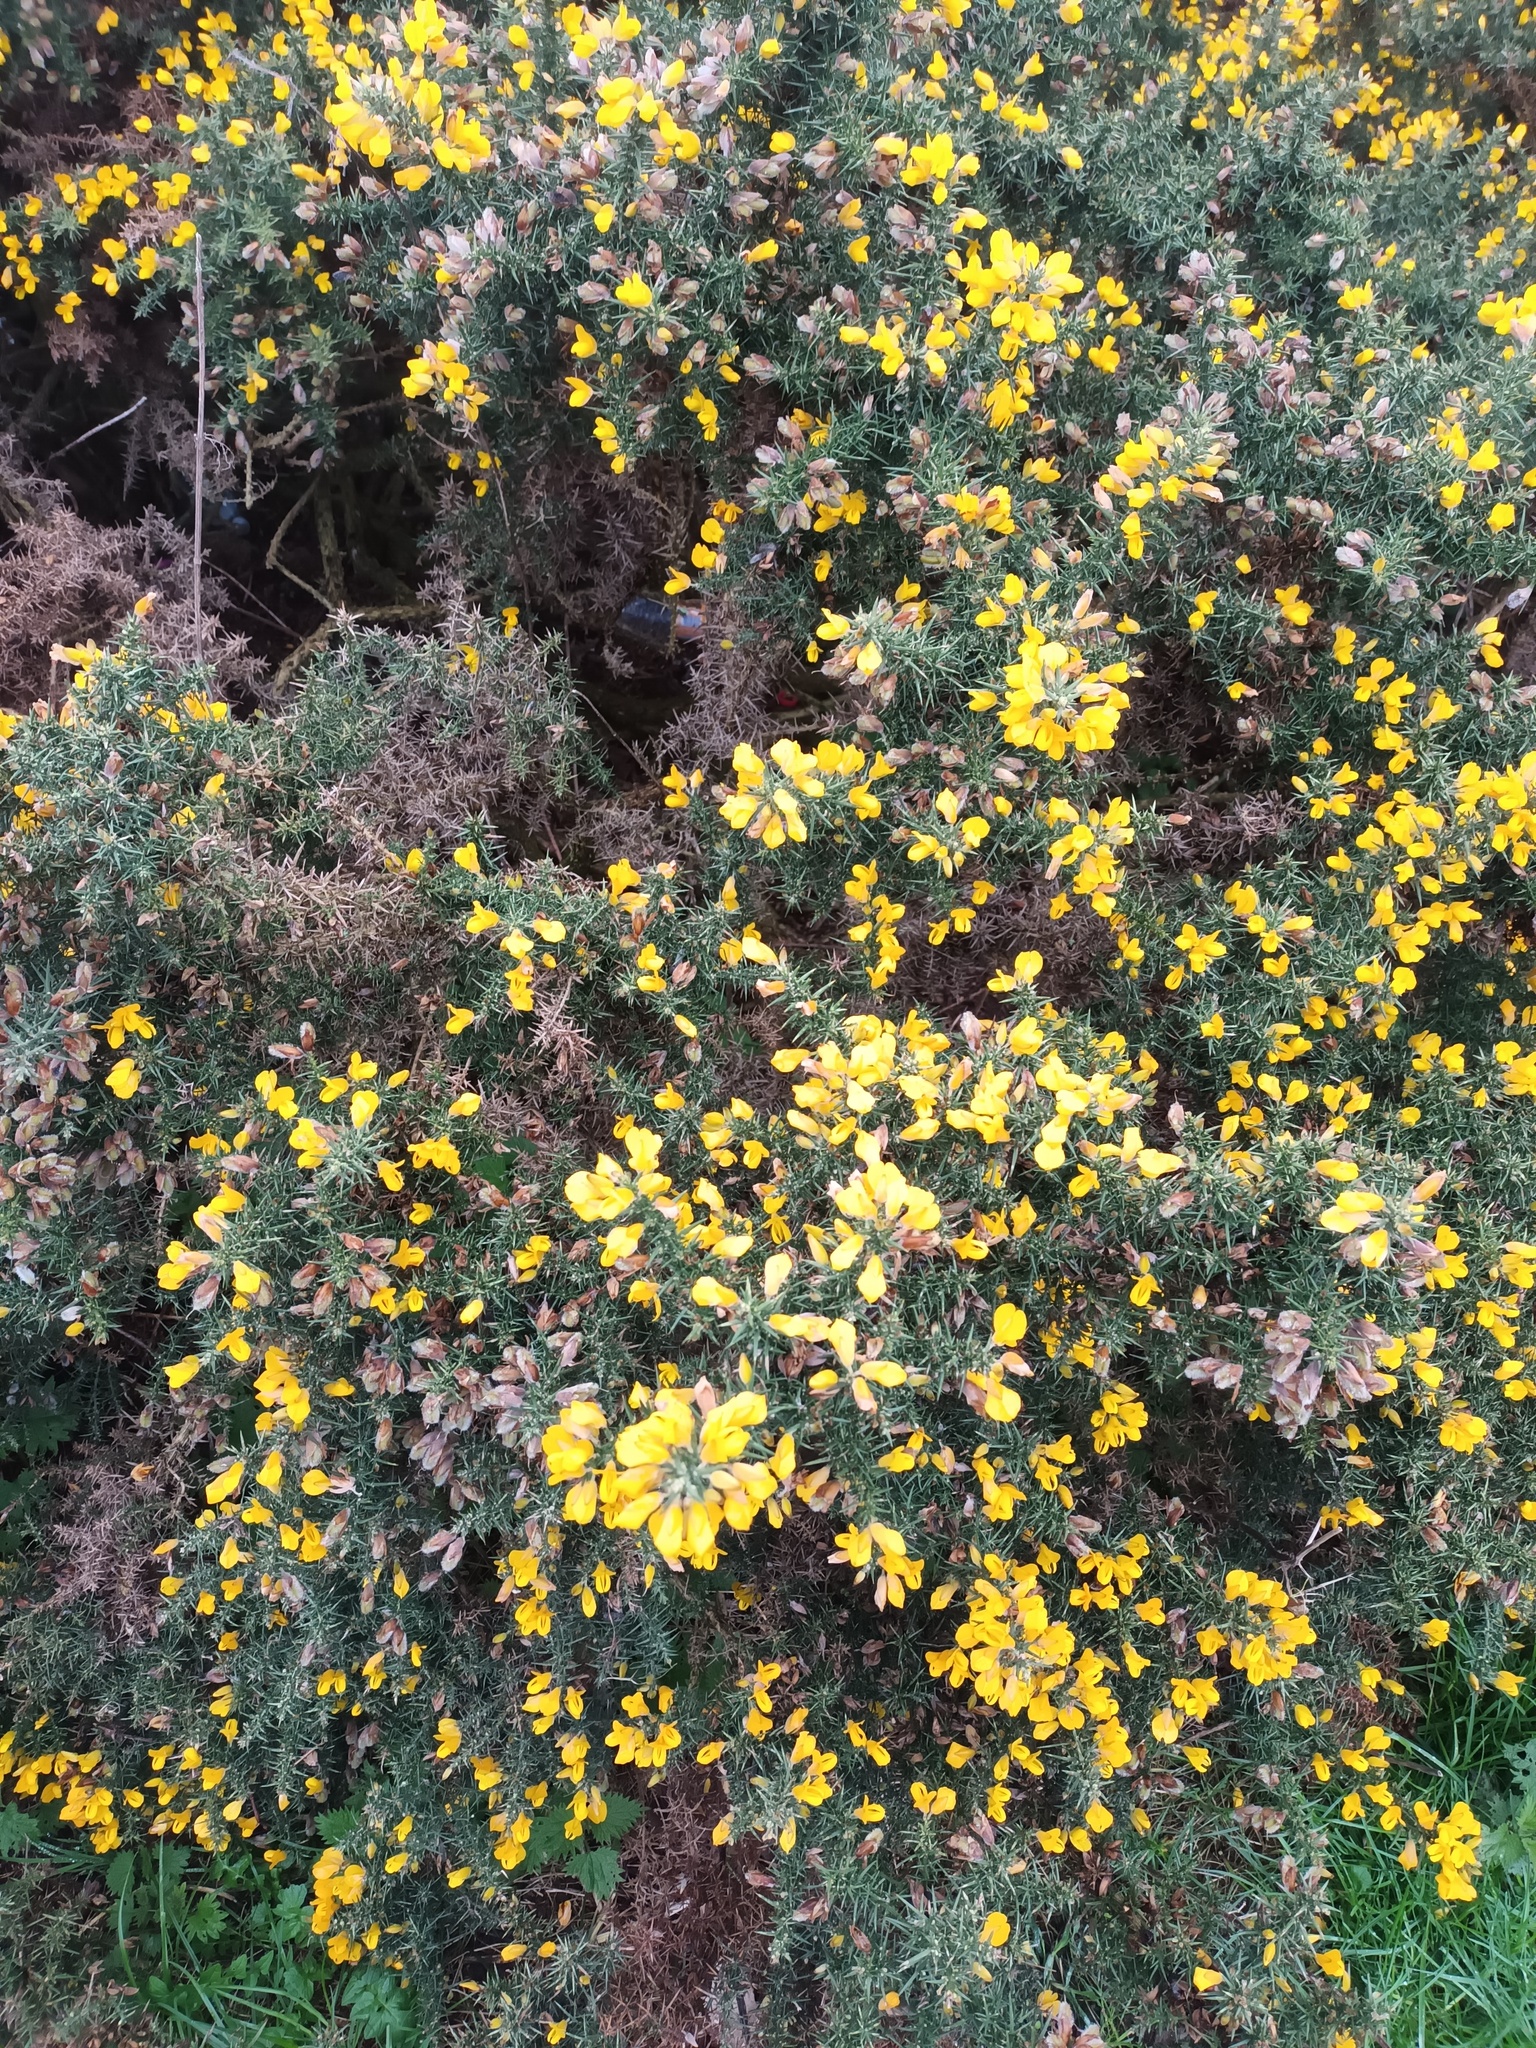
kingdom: Plantae
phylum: Tracheophyta
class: Magnoliopsida
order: Fabales
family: Fabaceae
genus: Ulex
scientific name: Ulex europaeus
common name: Common gorse
